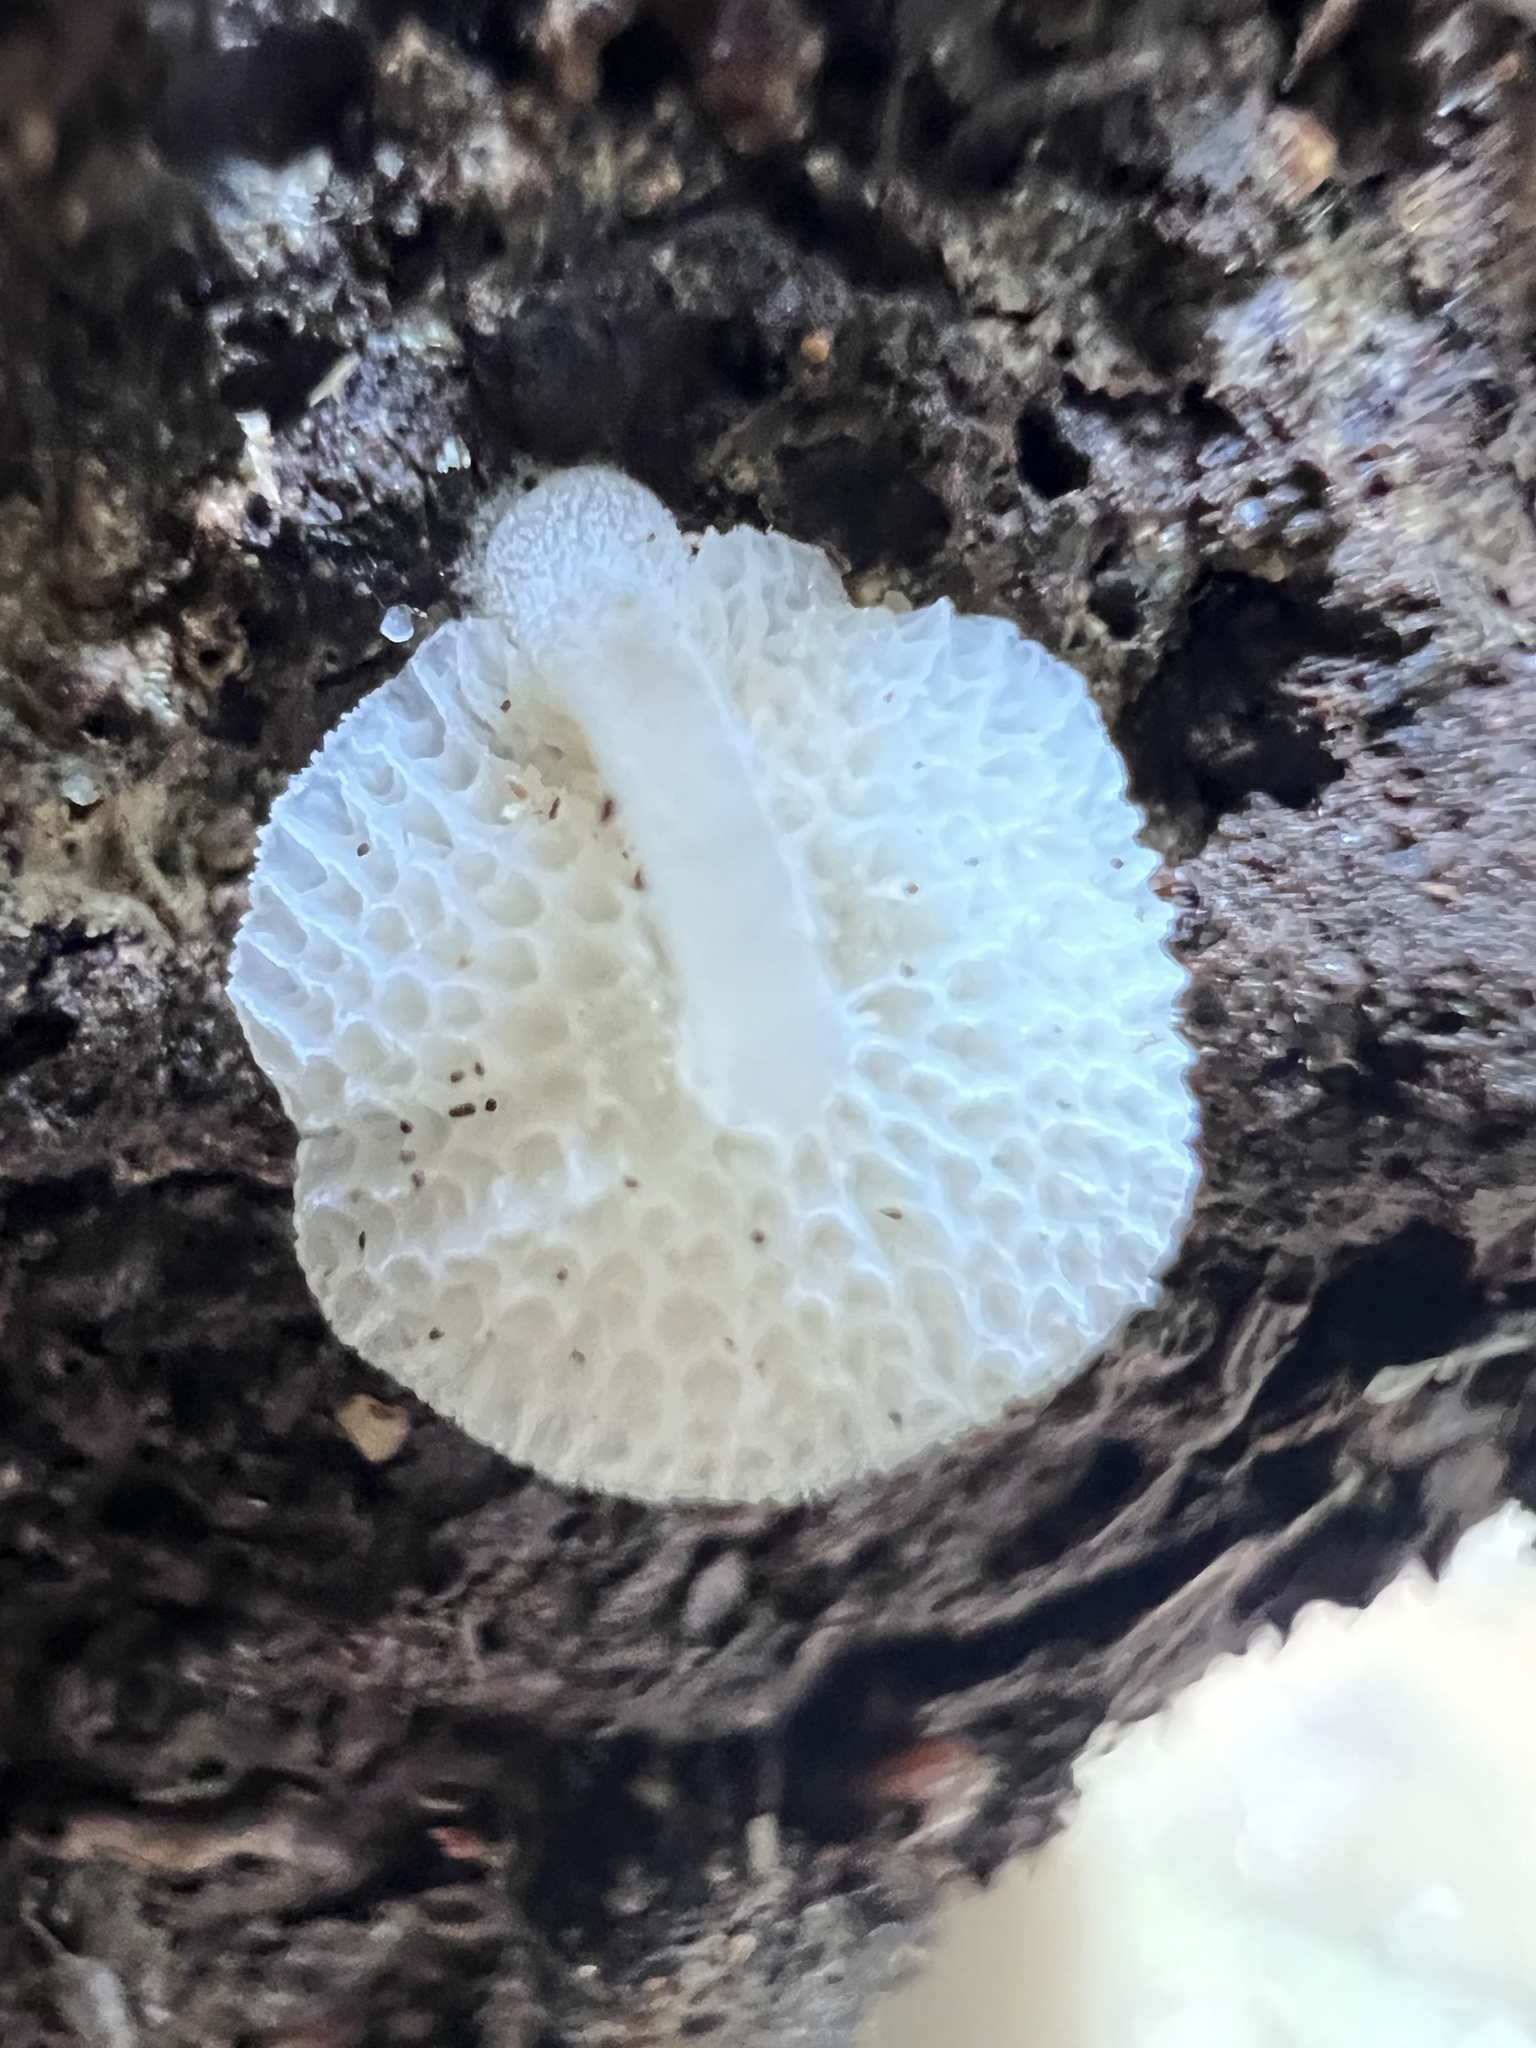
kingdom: Fungi
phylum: Basidiomycota
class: Agaricomycetes
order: Agaricales
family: Mycenaceae
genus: Filoboletus
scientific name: Filoboletus manipularis
